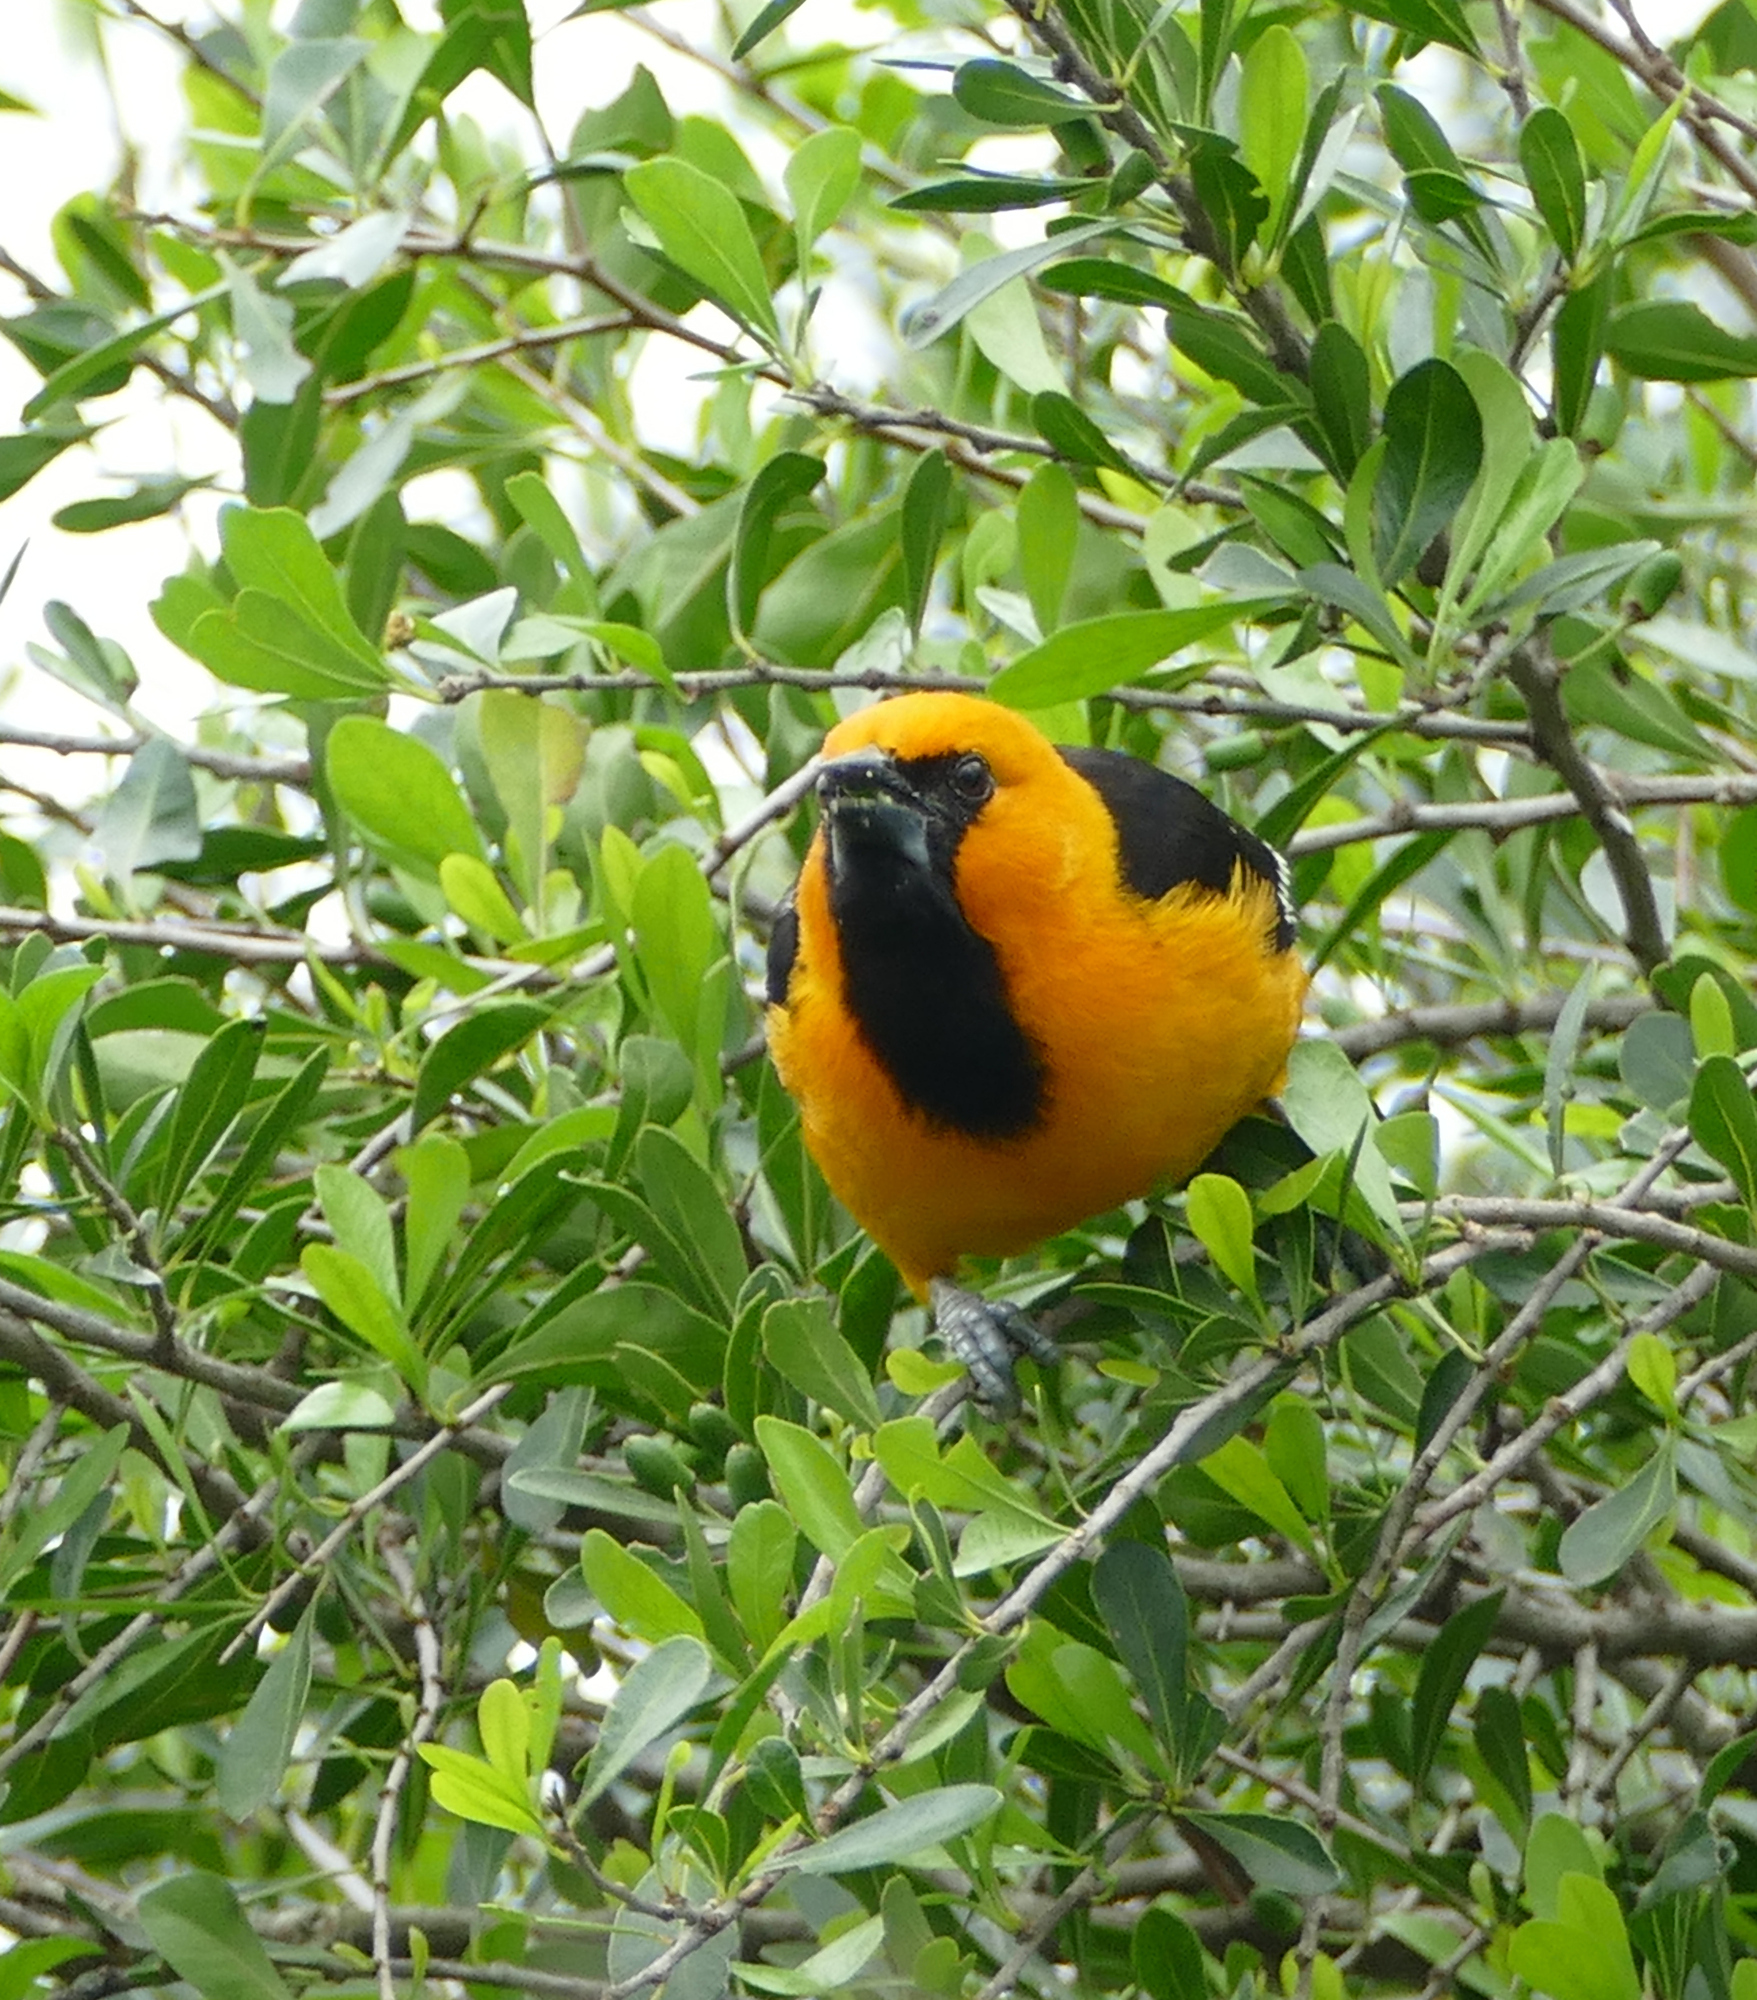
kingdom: Animalia
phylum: Chordata
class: Aves
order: Passeriformes
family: Icteridae
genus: Icterus
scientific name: Icterus gularis
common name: Altamira oriole
